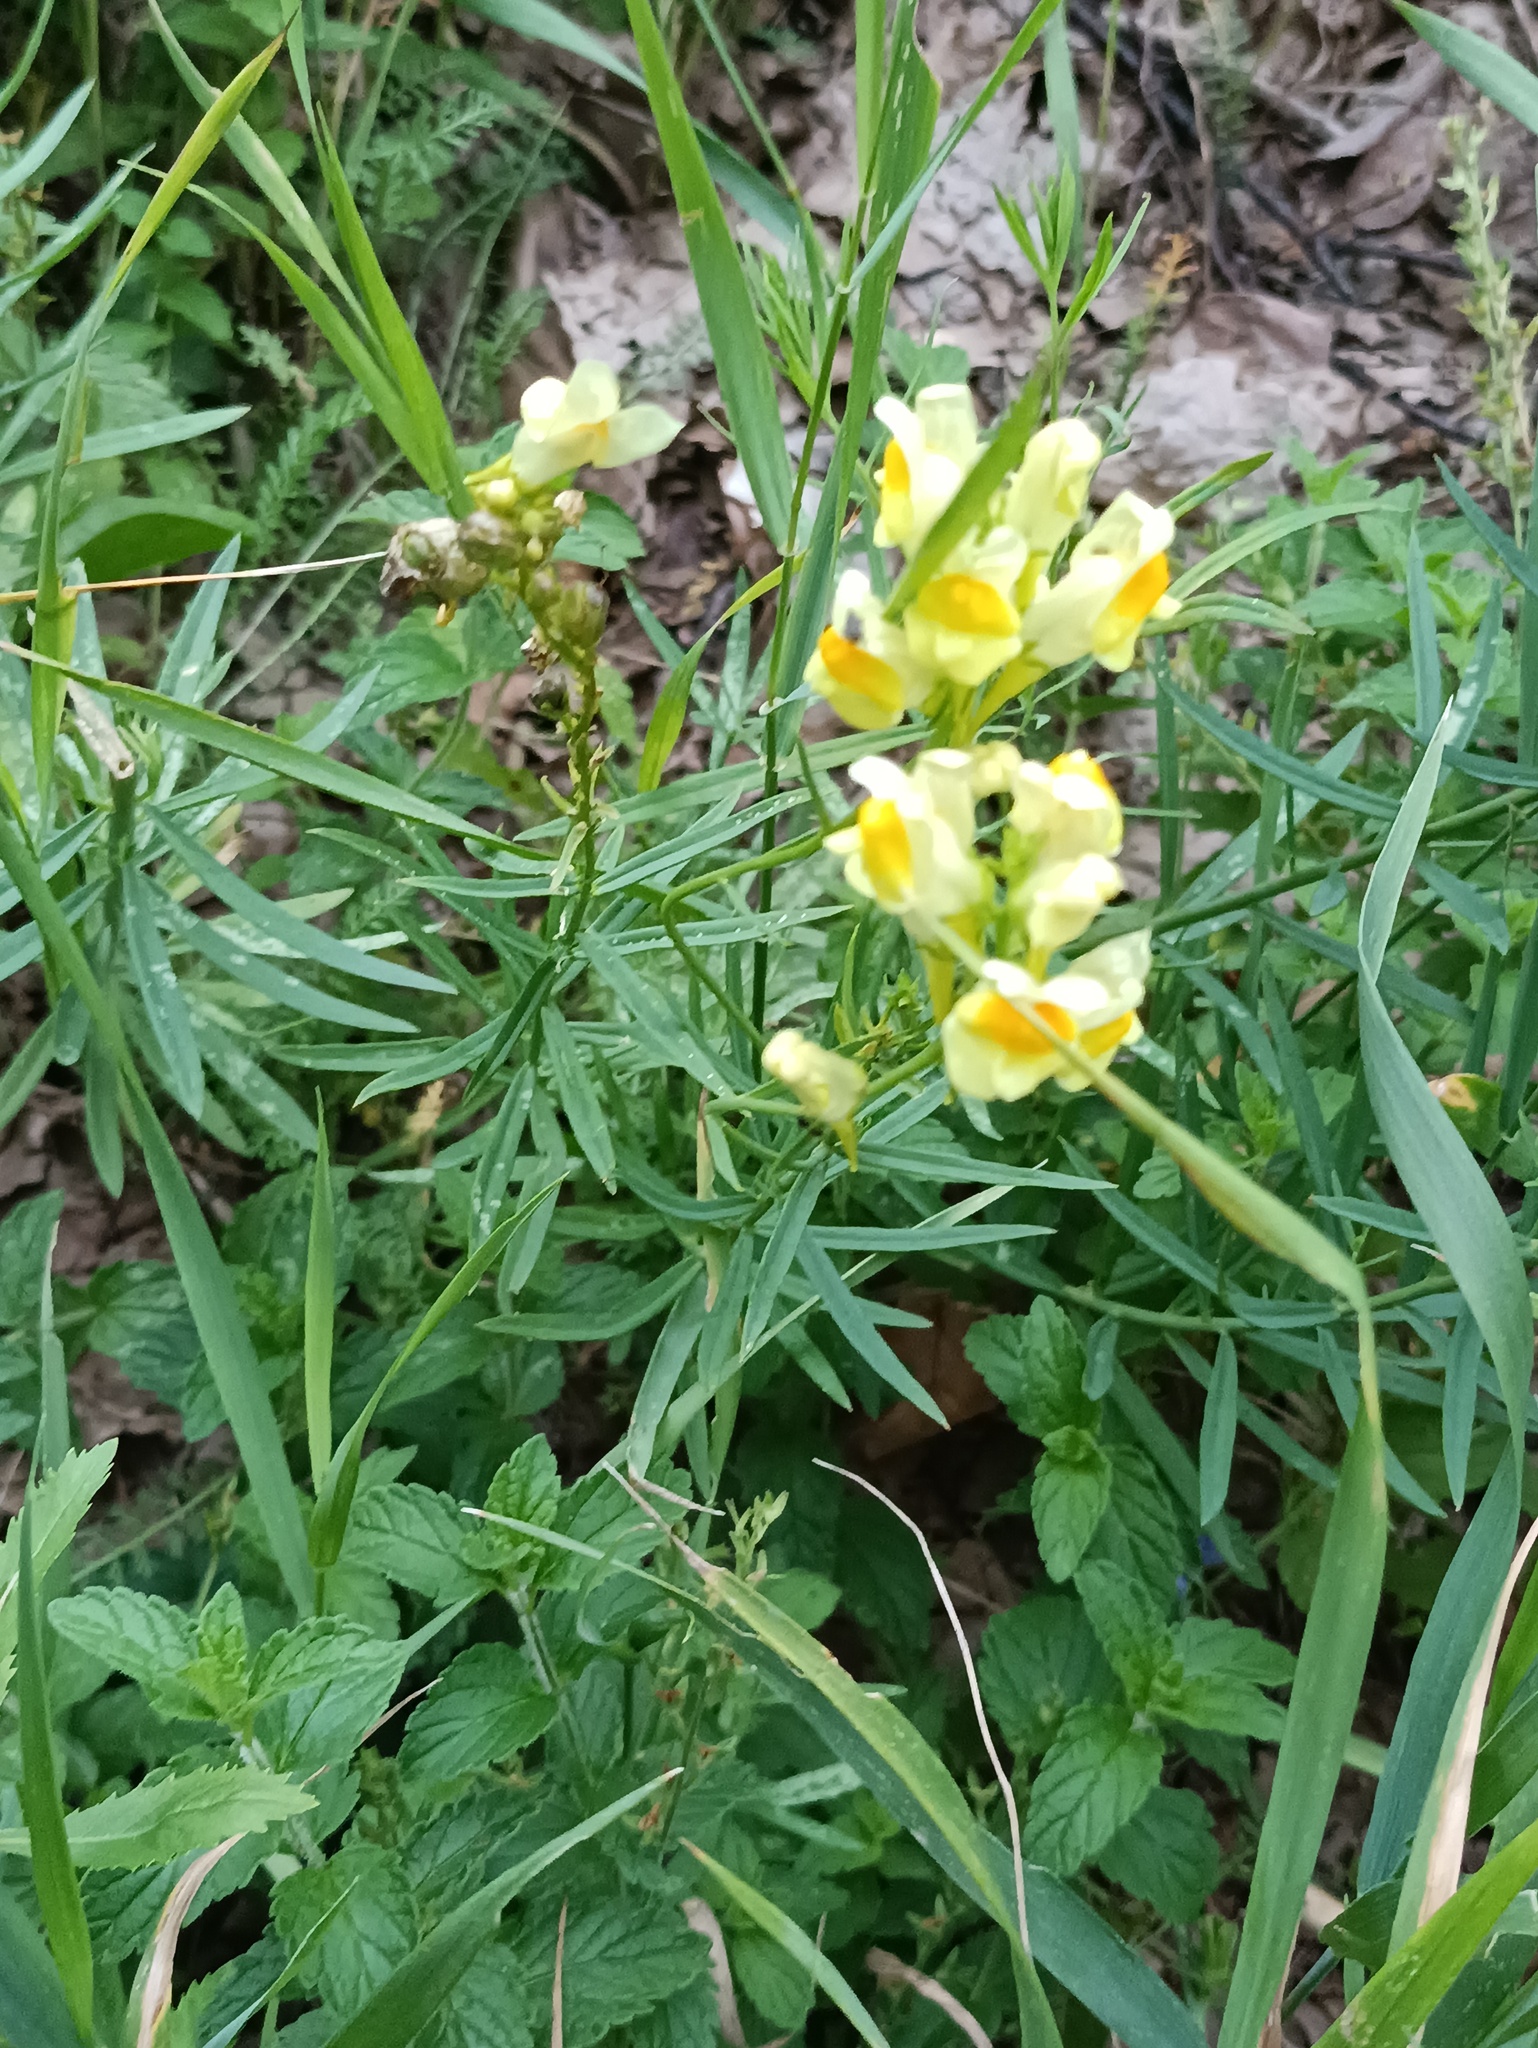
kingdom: Plantae
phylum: Tracheophyta
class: Magnoliopsida
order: Lamiales
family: Plantaginaceae
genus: Linaria
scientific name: Linaria vulgaris
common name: Butter and eggs
